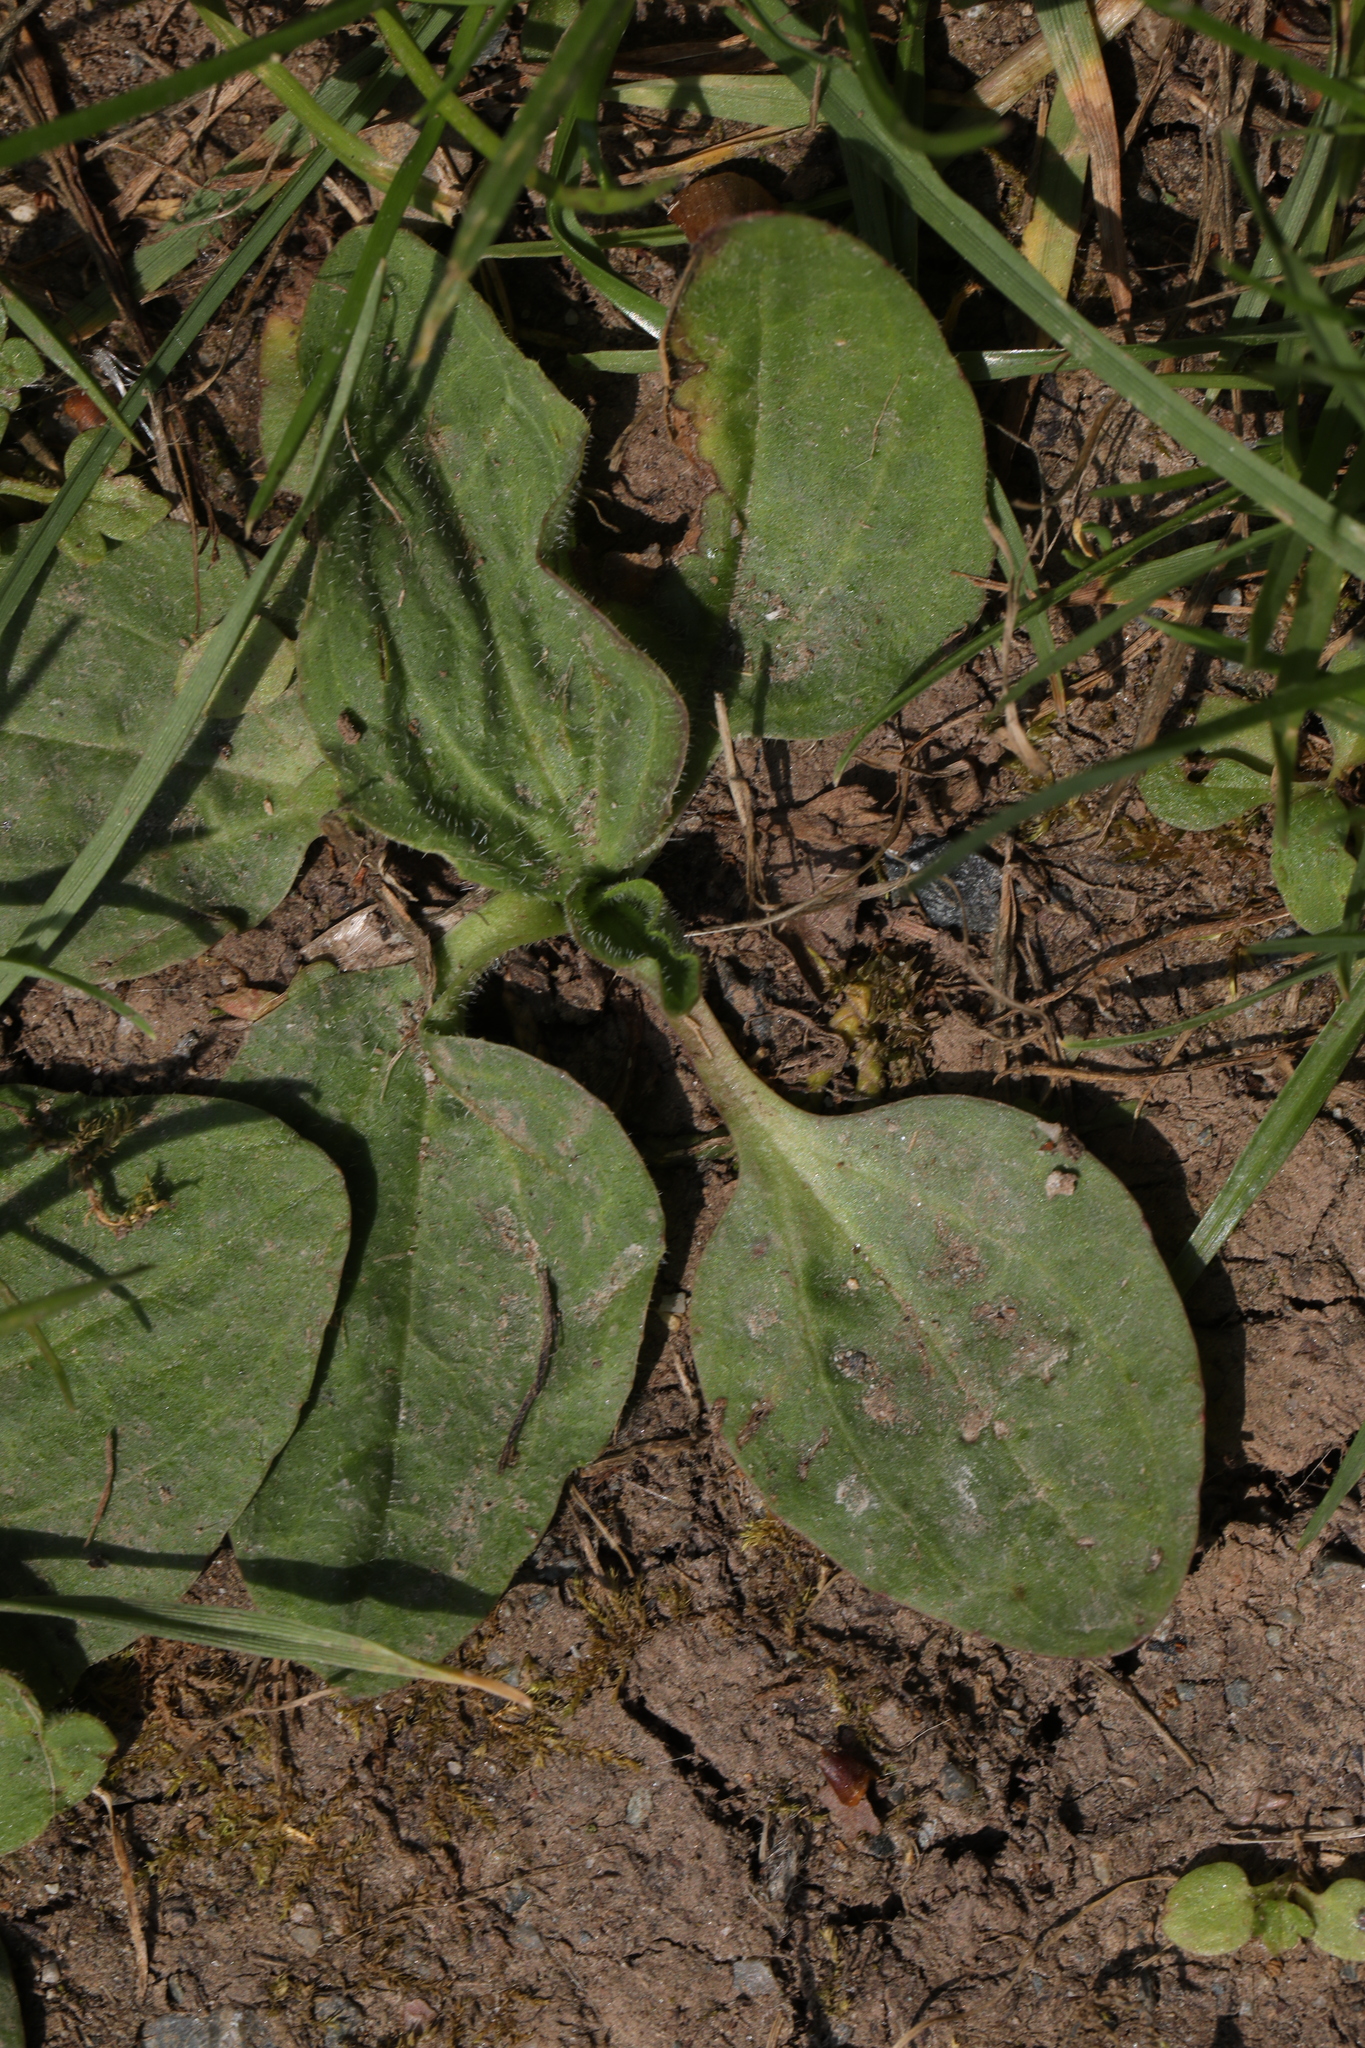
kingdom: Plantae
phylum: Tracheophyta
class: Magnoliopsida
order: Lamiales
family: Plantaginaceae
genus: Plantago
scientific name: Plantago major
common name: Common plantain
